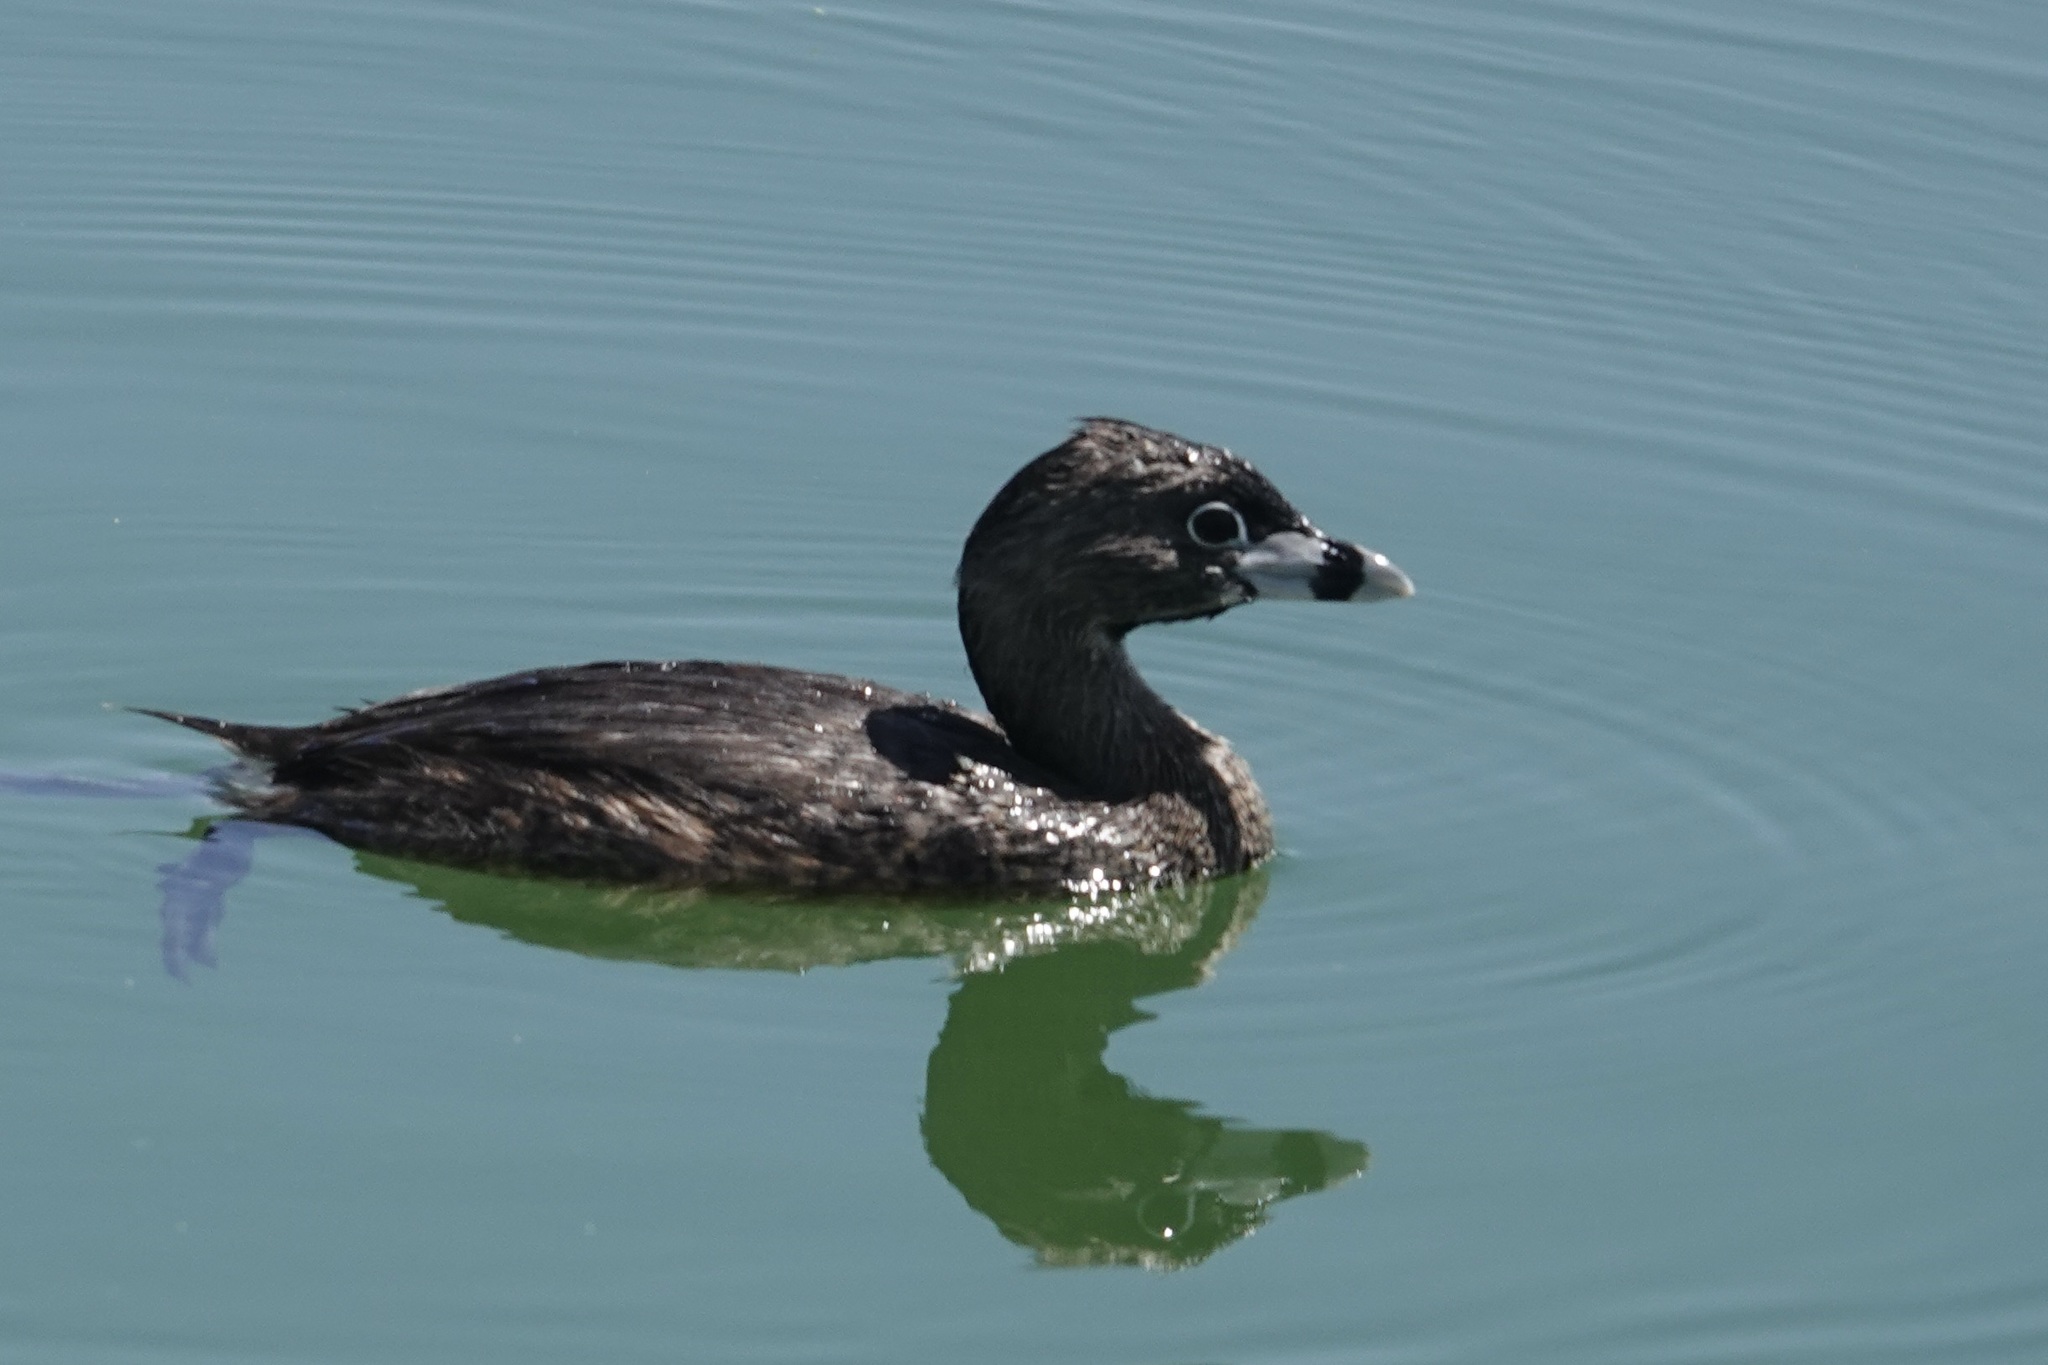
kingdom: Animalia
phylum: Chordata
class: Aves
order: Podicipediformes
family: Podicipedidae
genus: Podilymbus
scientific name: Podilymbus podiceps
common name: Pied-billed grebe
